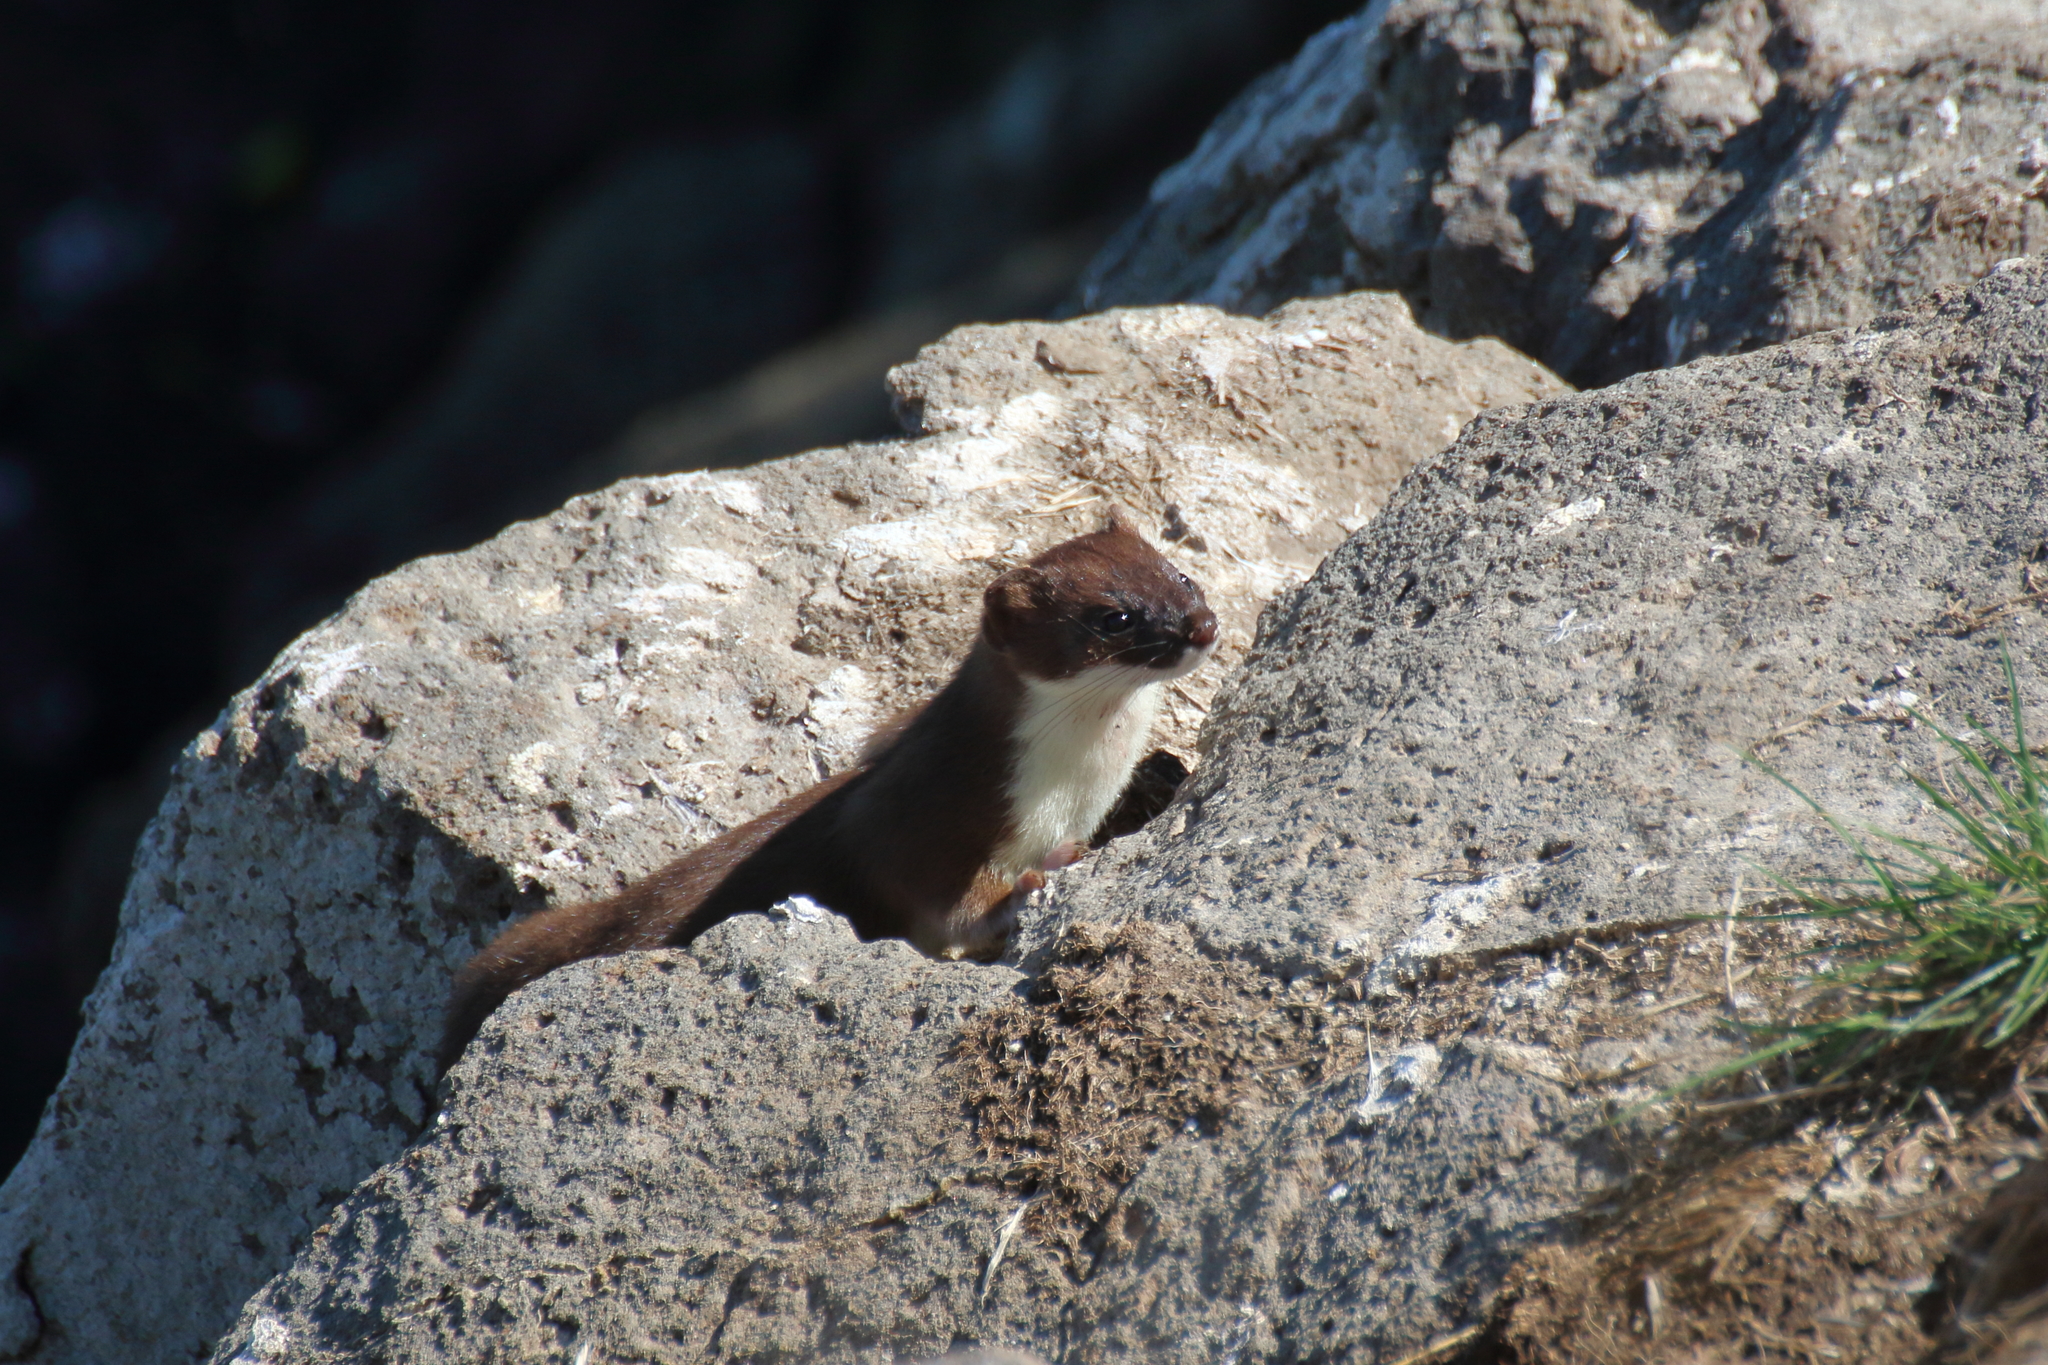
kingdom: Animalia
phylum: Chordata
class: Mammalia
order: Carnivora
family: Mustelidae
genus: Mustela
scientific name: Mustela erminea
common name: Stoat
